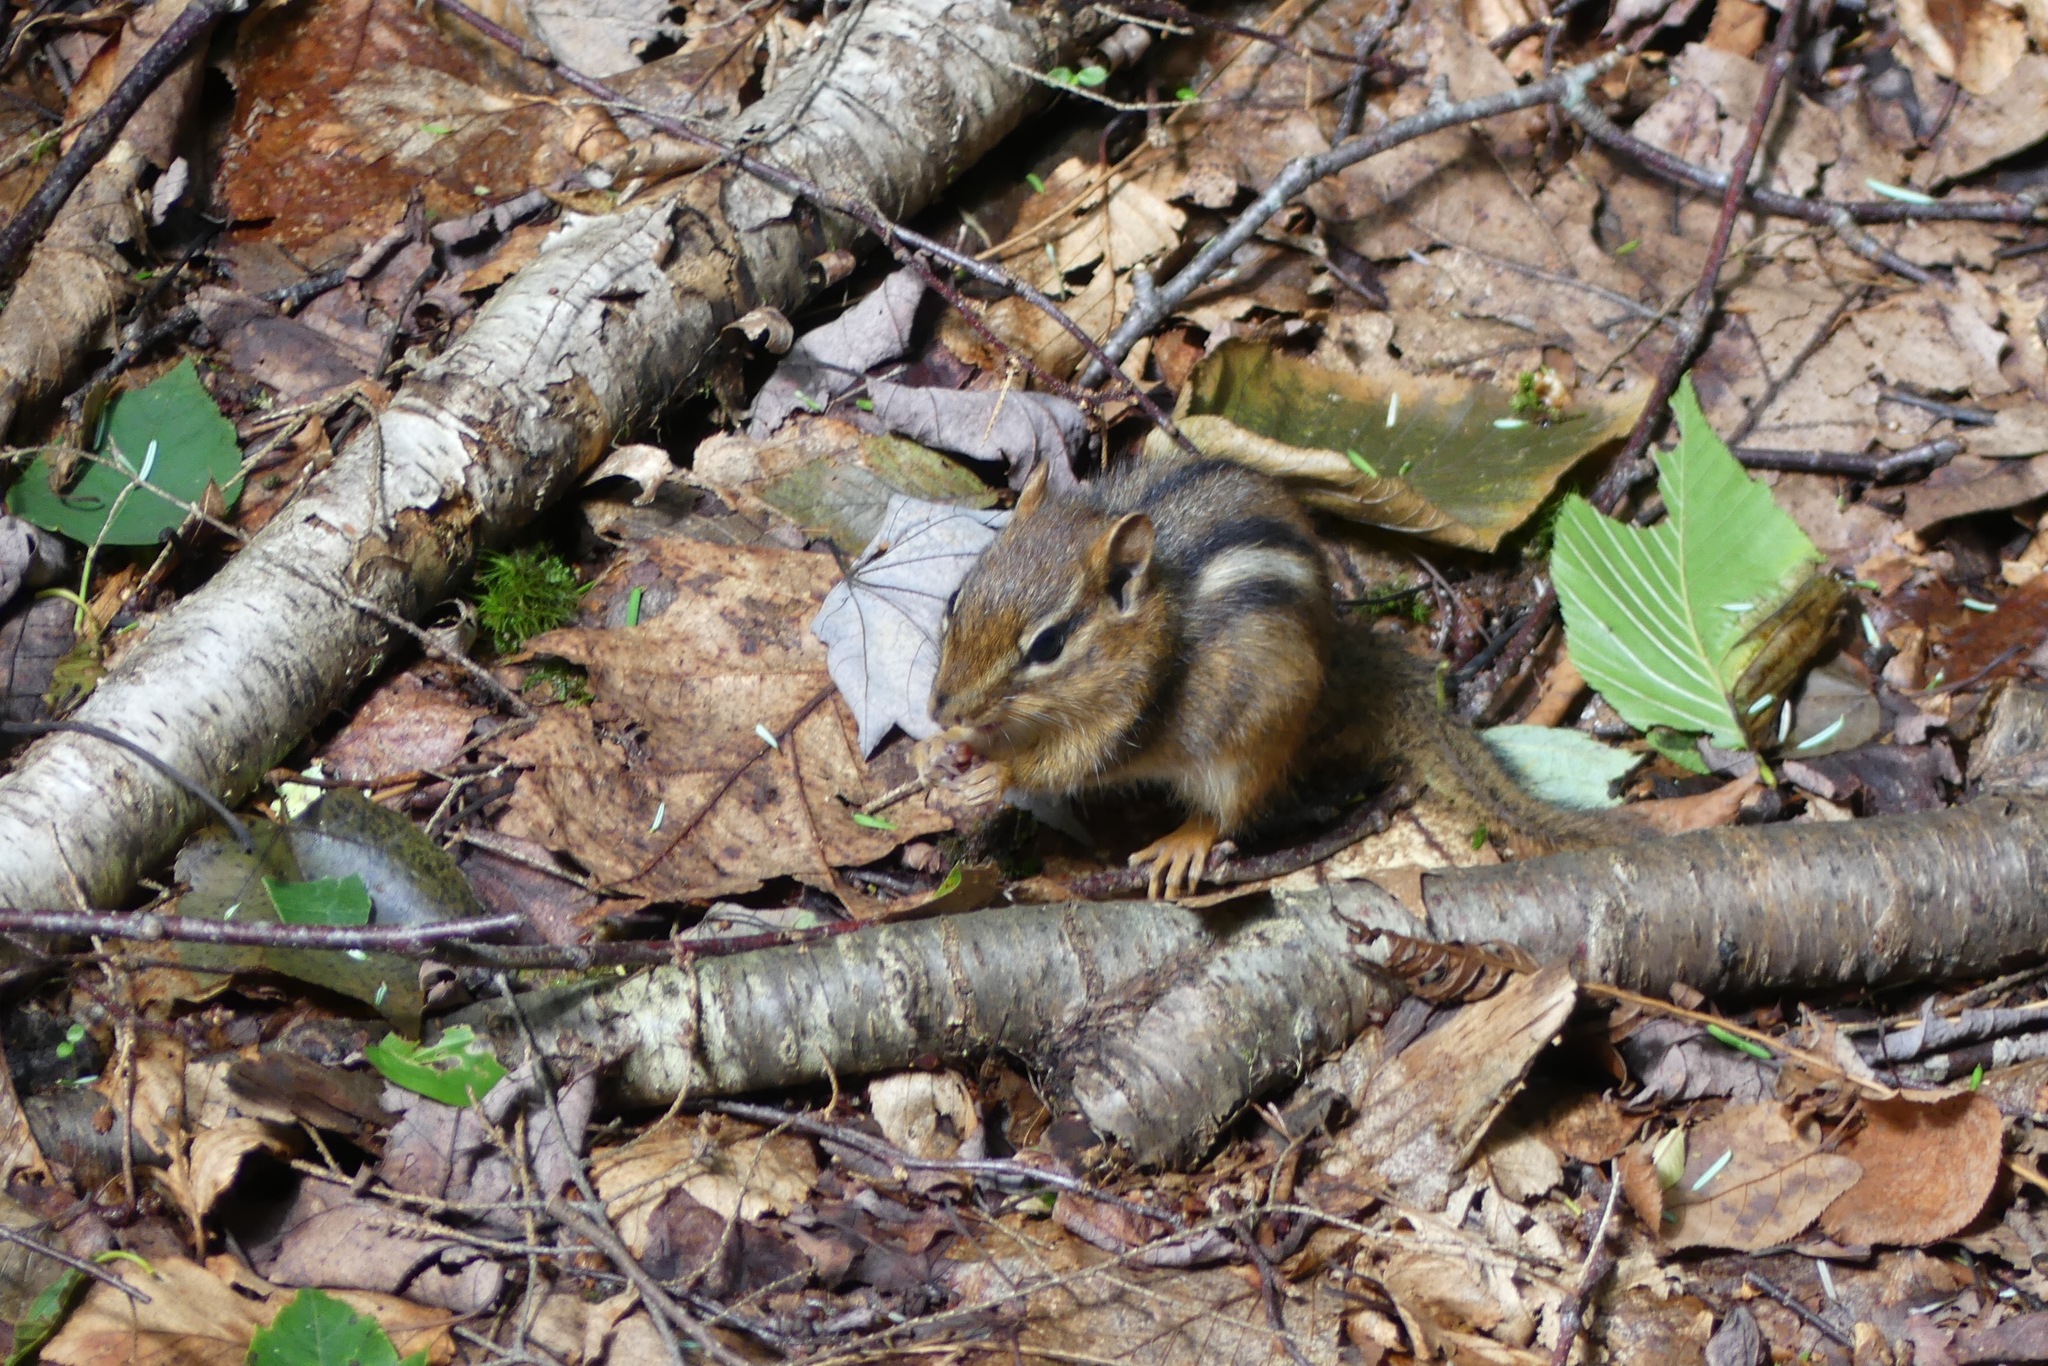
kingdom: Animalia
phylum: Chordata
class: Mammalia
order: Rodentia
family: Sciuridae
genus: Tamias
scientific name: Tamias striatus
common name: Eastern chipmunk
